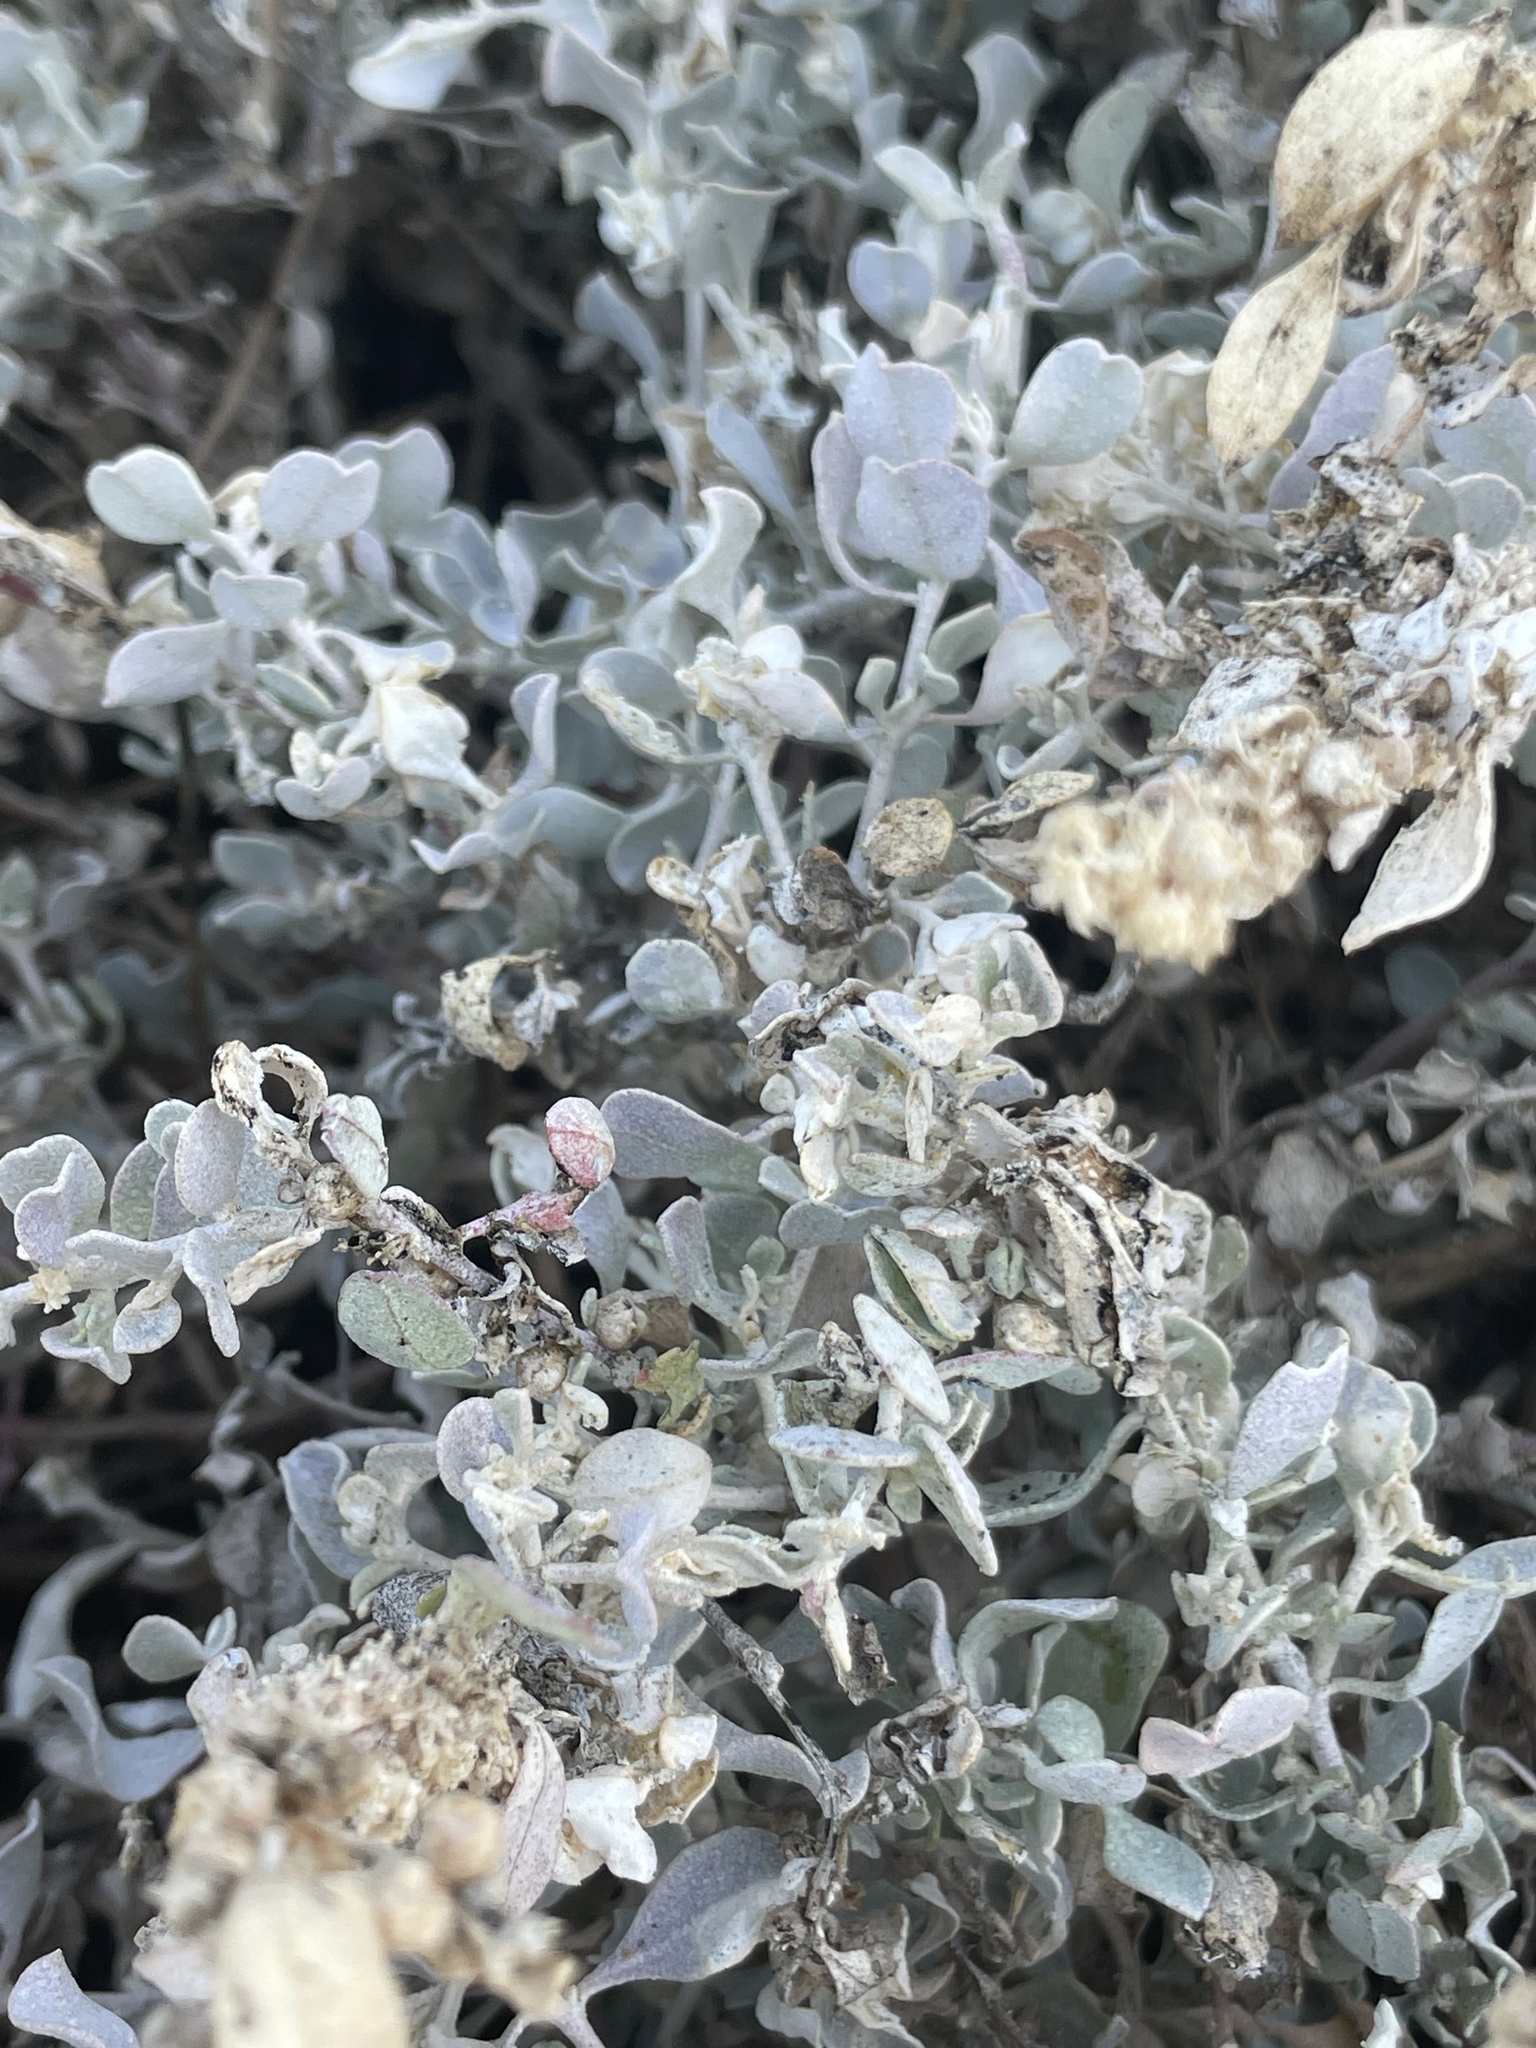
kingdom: Plantae
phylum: Tracheophyta
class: Magnoliopsida
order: Caryophyllales
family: Amaranthaceae
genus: Atriplex
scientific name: Atriplex barclayana
